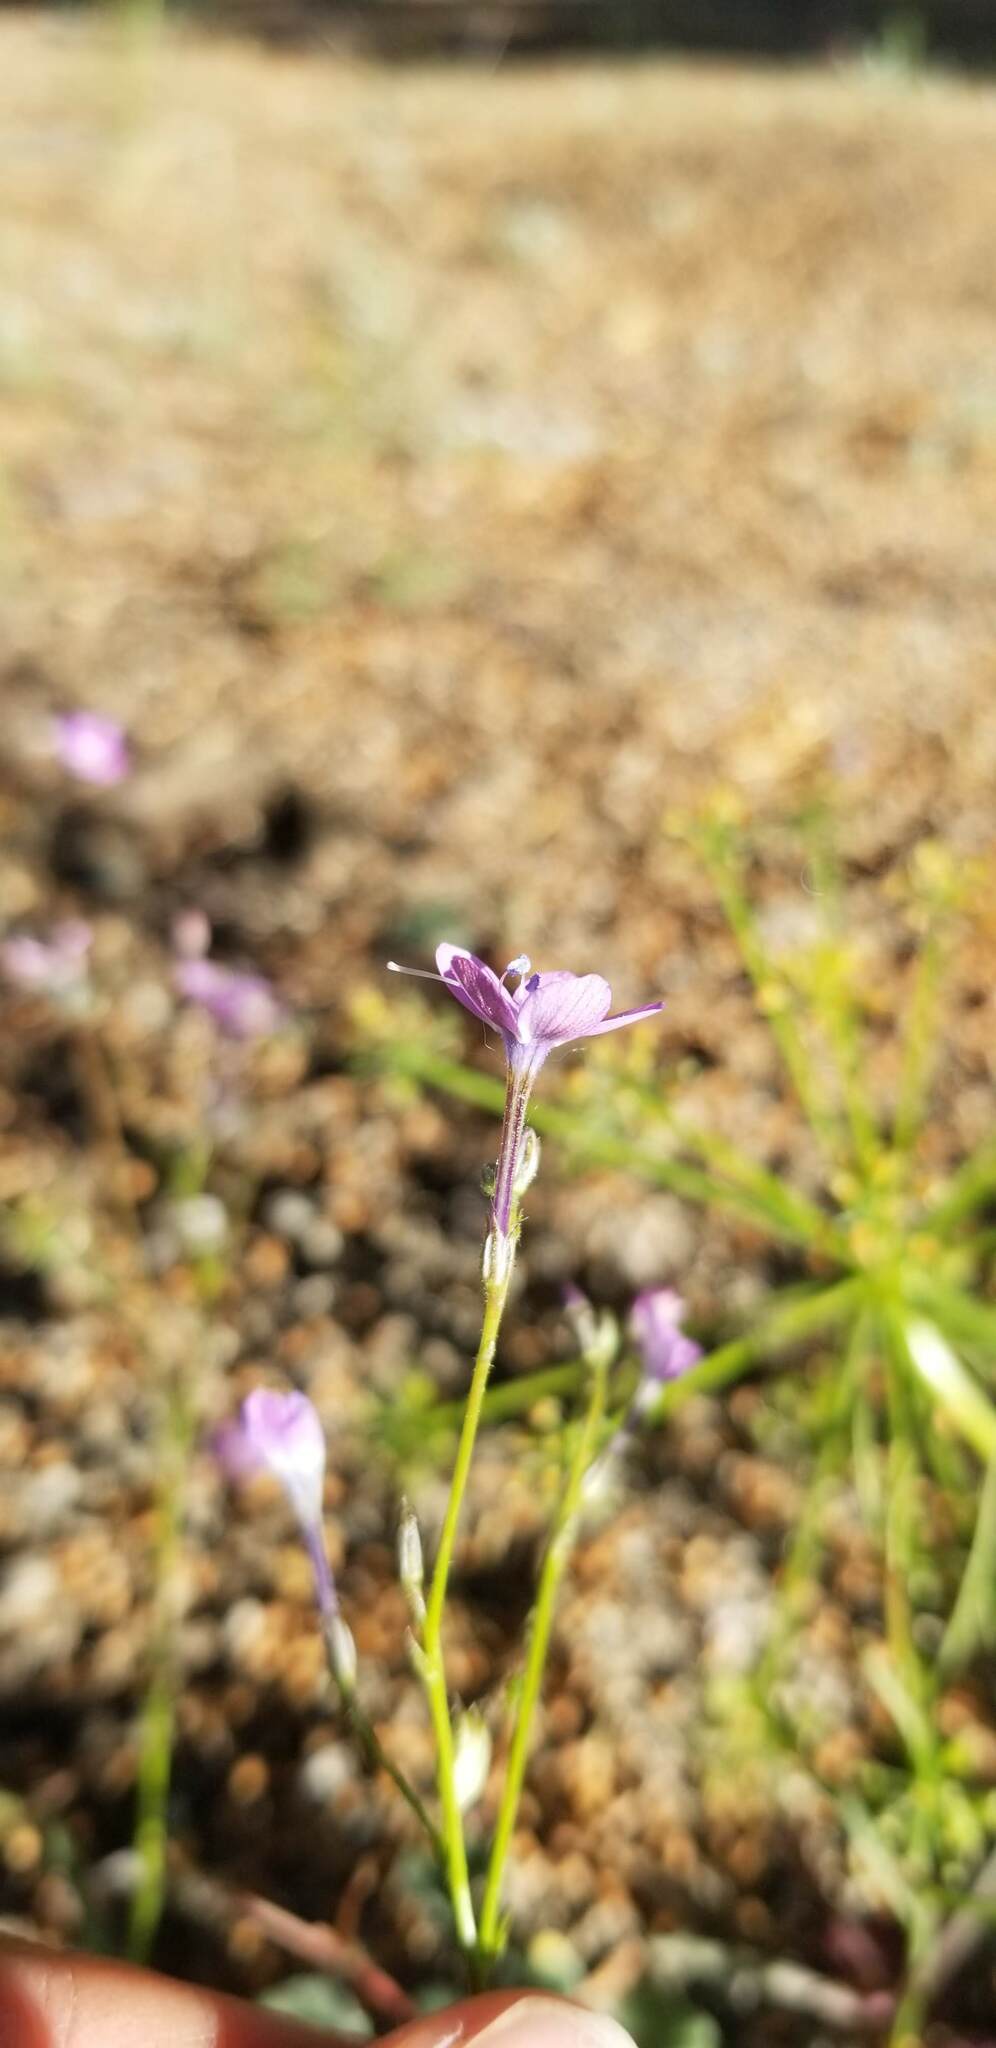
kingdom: Plantae
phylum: Tracheophyta
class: Magnoliopsida
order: Ericales
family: Polemoniaceae
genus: Gilia
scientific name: Gilia leptantha
